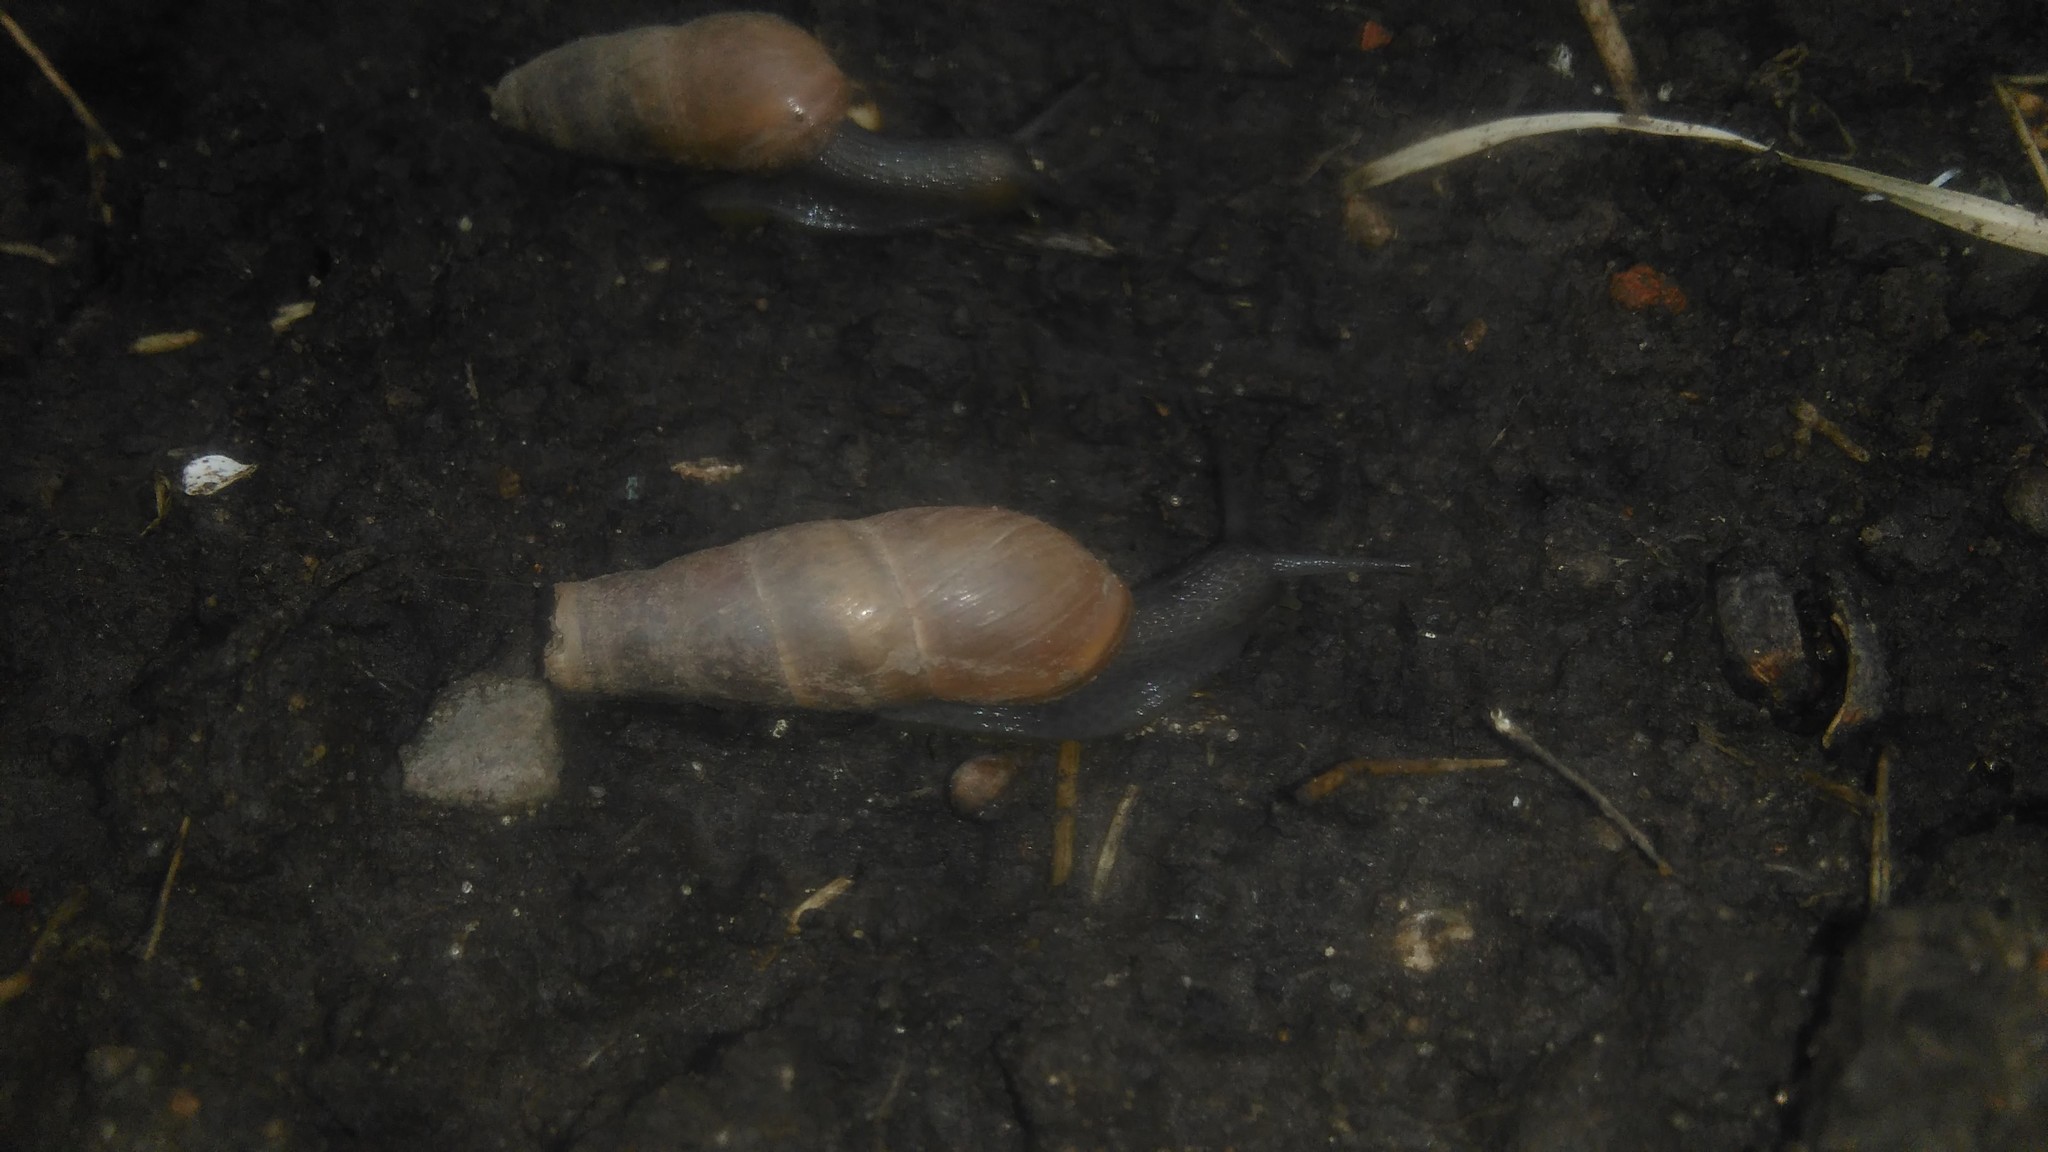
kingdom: Animalia
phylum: Mollusca
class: Gastropoda
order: Stylommatophora
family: Achatinidae
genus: Rumina
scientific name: Rumina decollata
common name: Decollate snail
